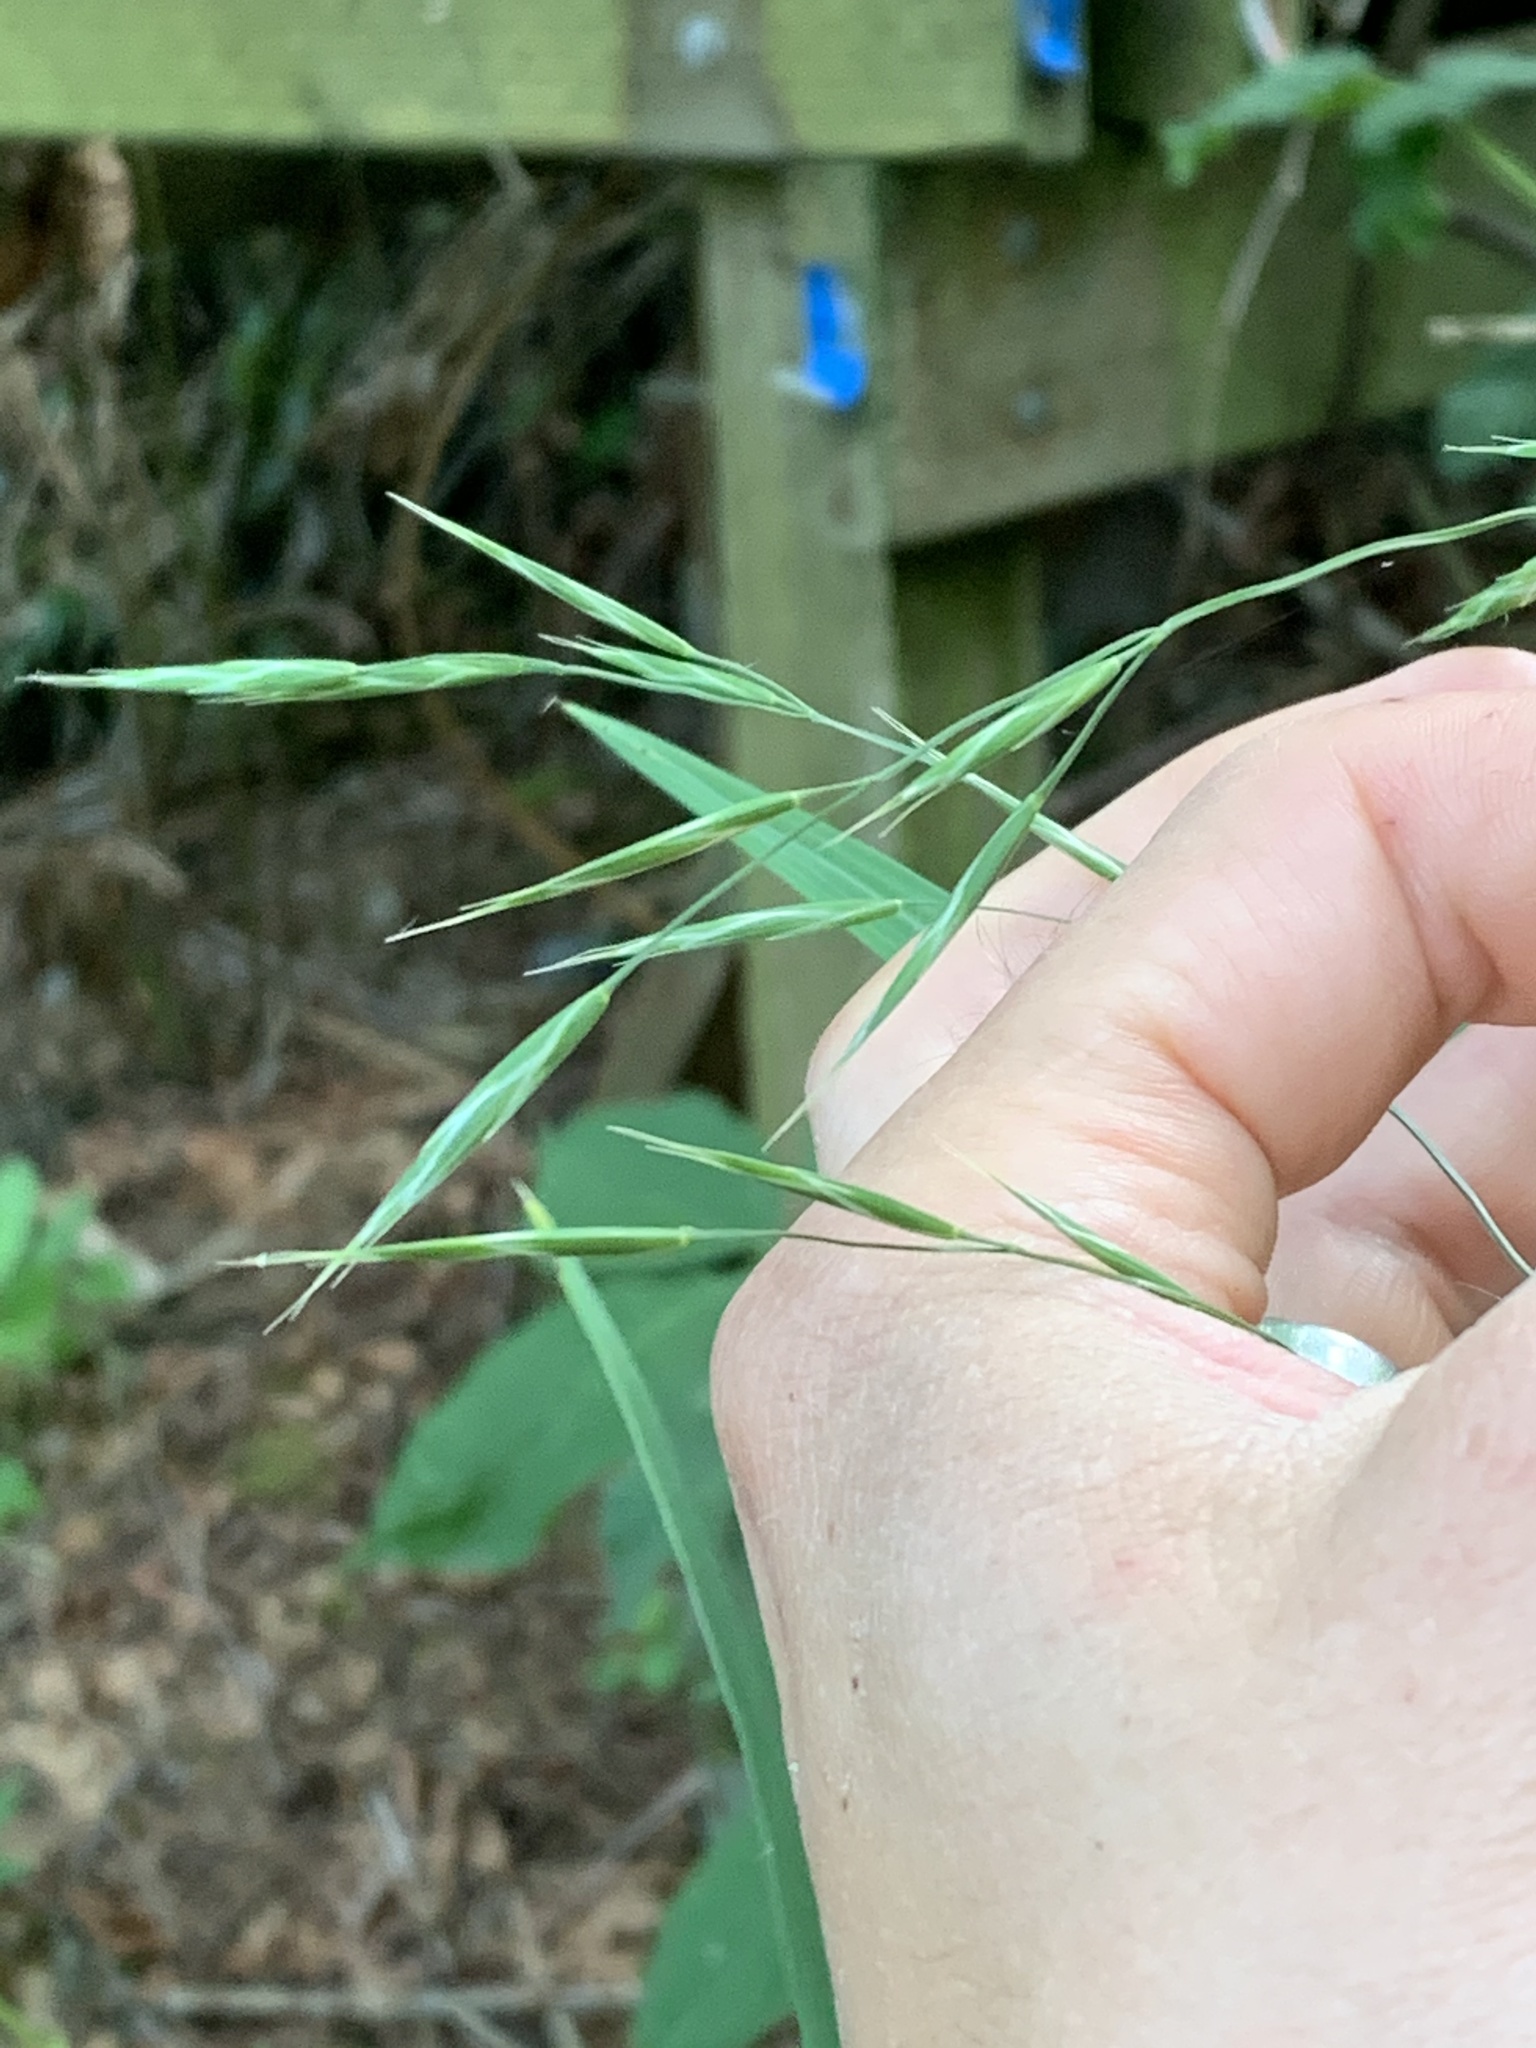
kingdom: Plantae
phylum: Tracheophyta
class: Liliopsida
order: Poales
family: Poaceae
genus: Bromus
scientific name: Bromus sitchensis
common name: Sitka brome
